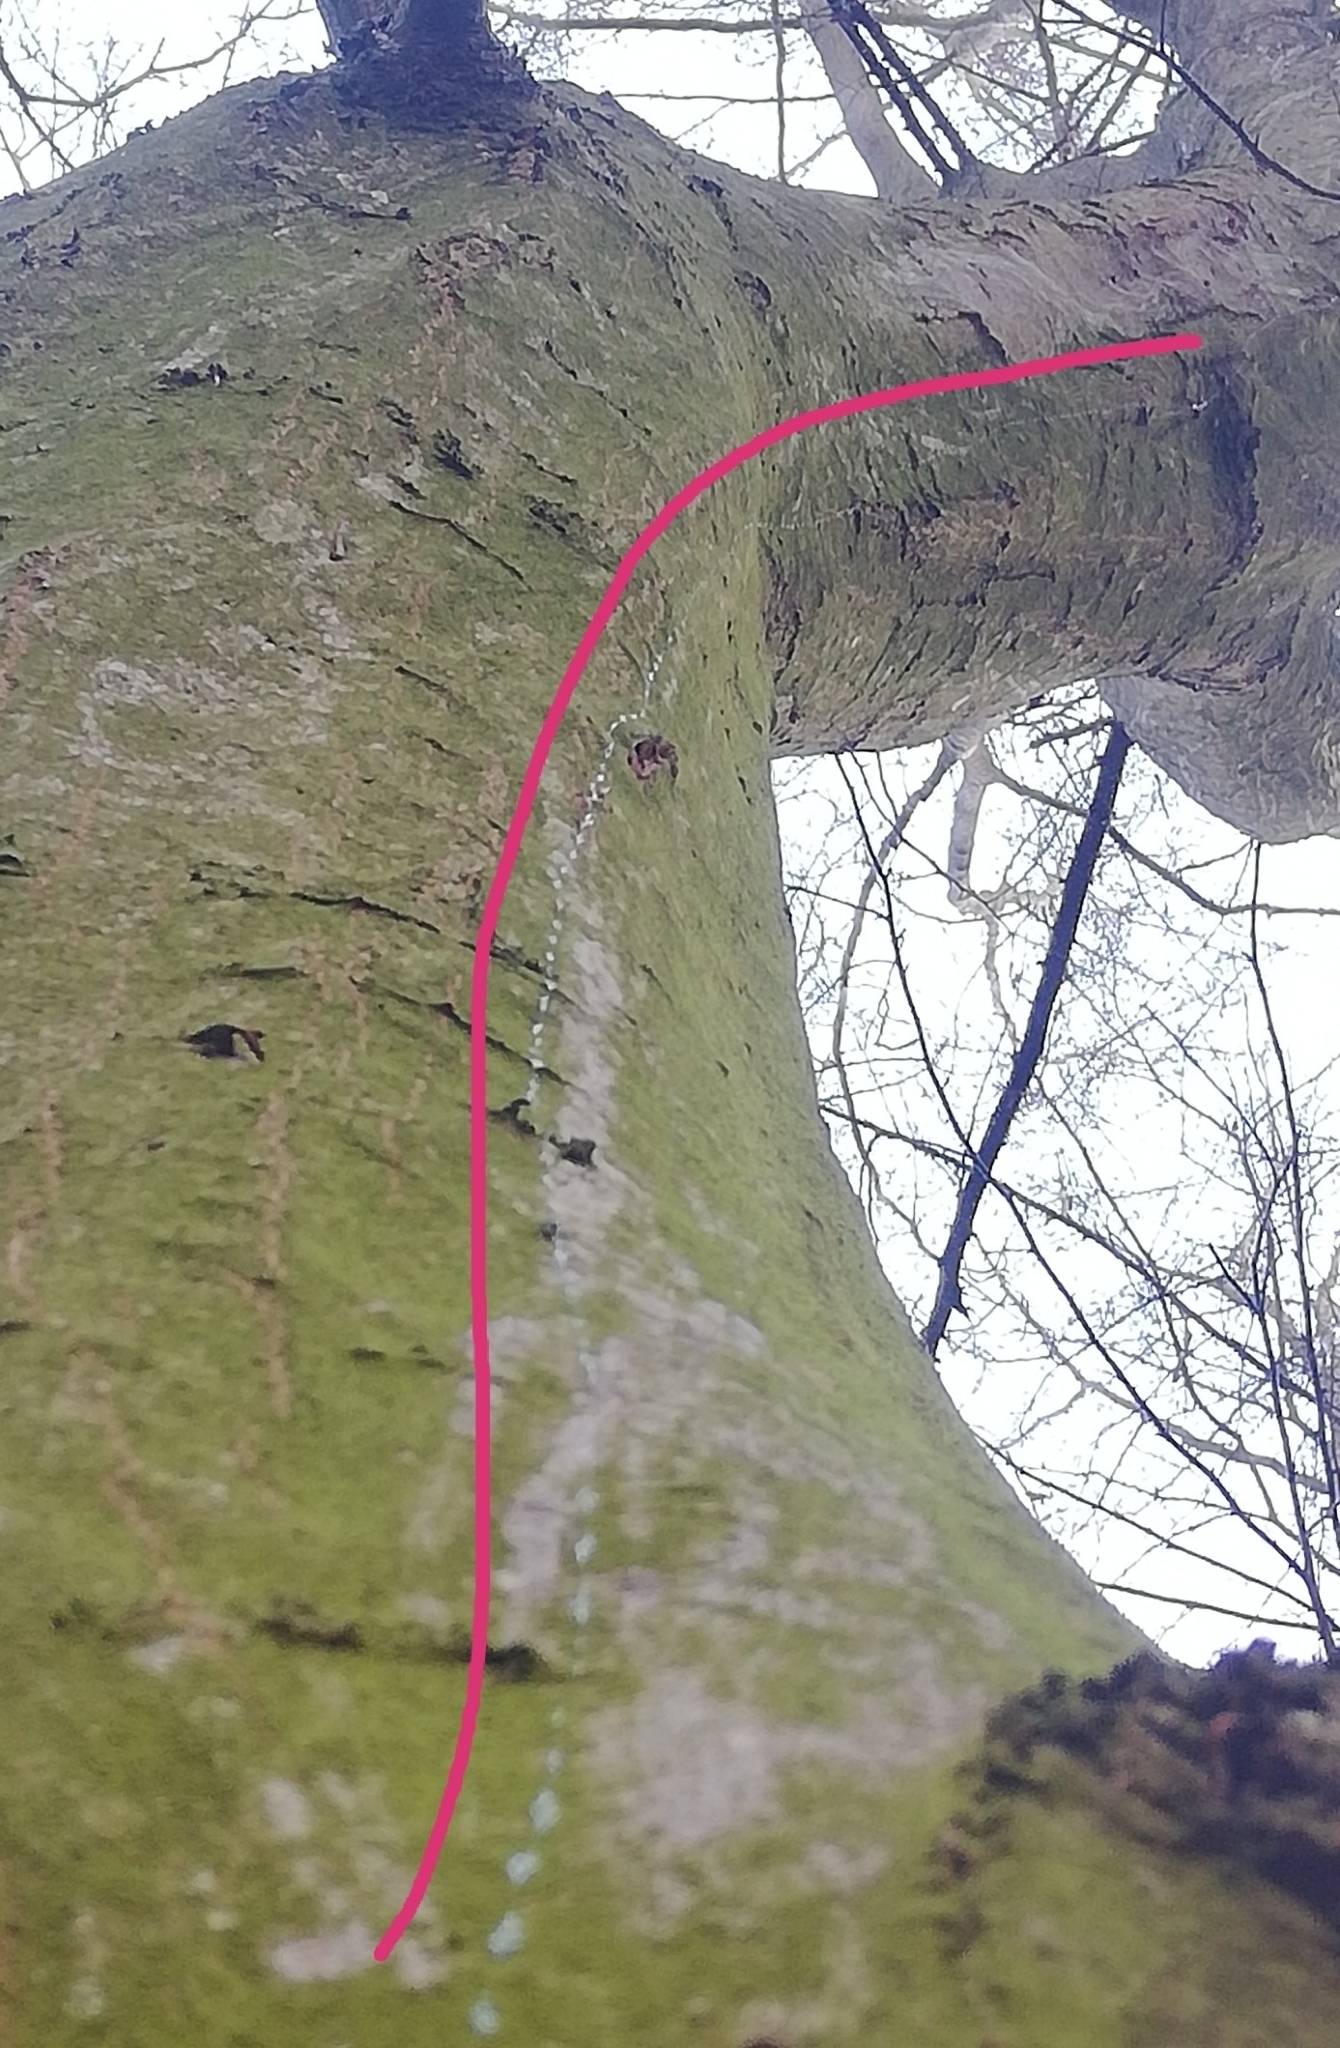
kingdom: Animalia
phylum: Mollusca
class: Gastropoda
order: Stylommatophora
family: Limacidae
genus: Lehmannia
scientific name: Lehmannia marginata
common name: Tree slug
